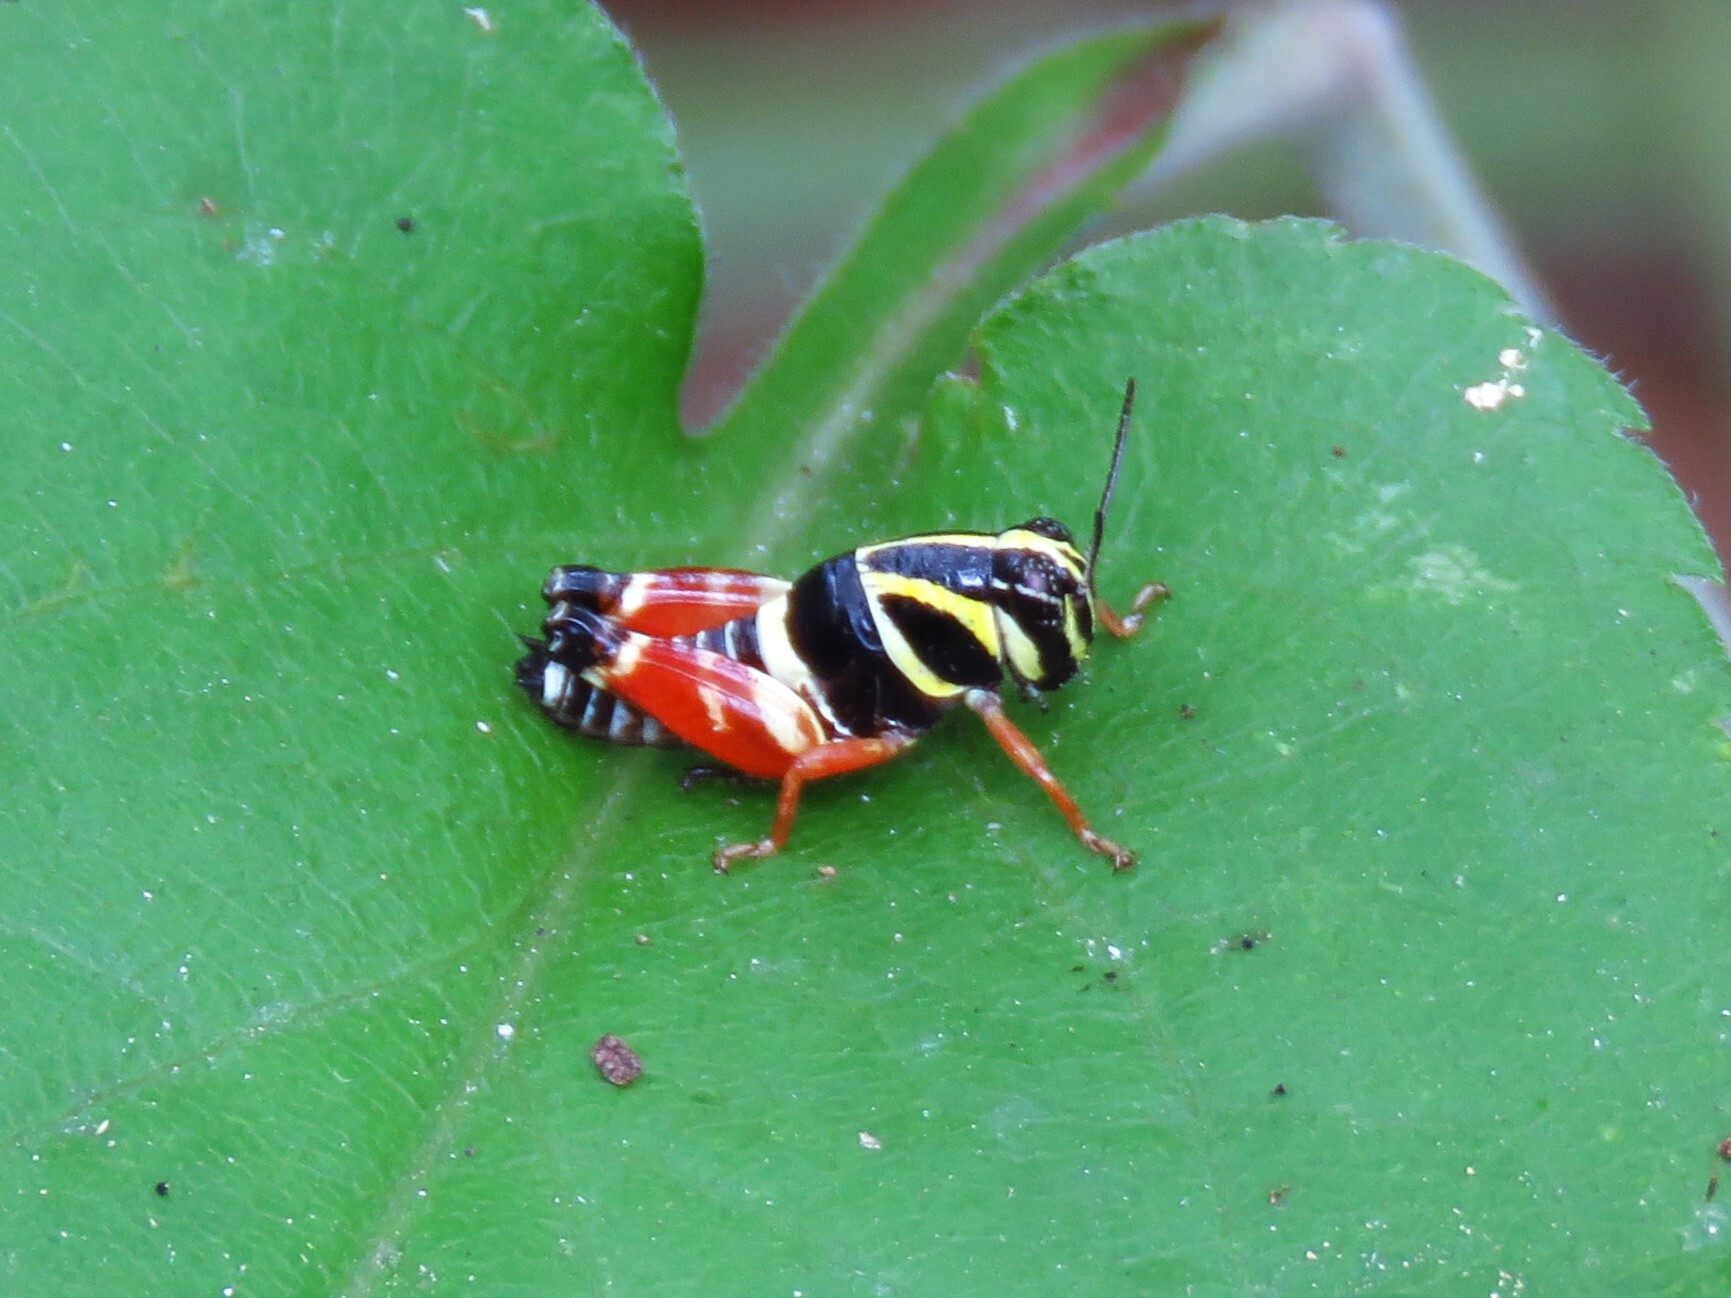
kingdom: Animalia
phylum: Arthropoda
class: Insecta
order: Orthoptera
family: Acrididae
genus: Aidemona
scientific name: Aidemona azteca
